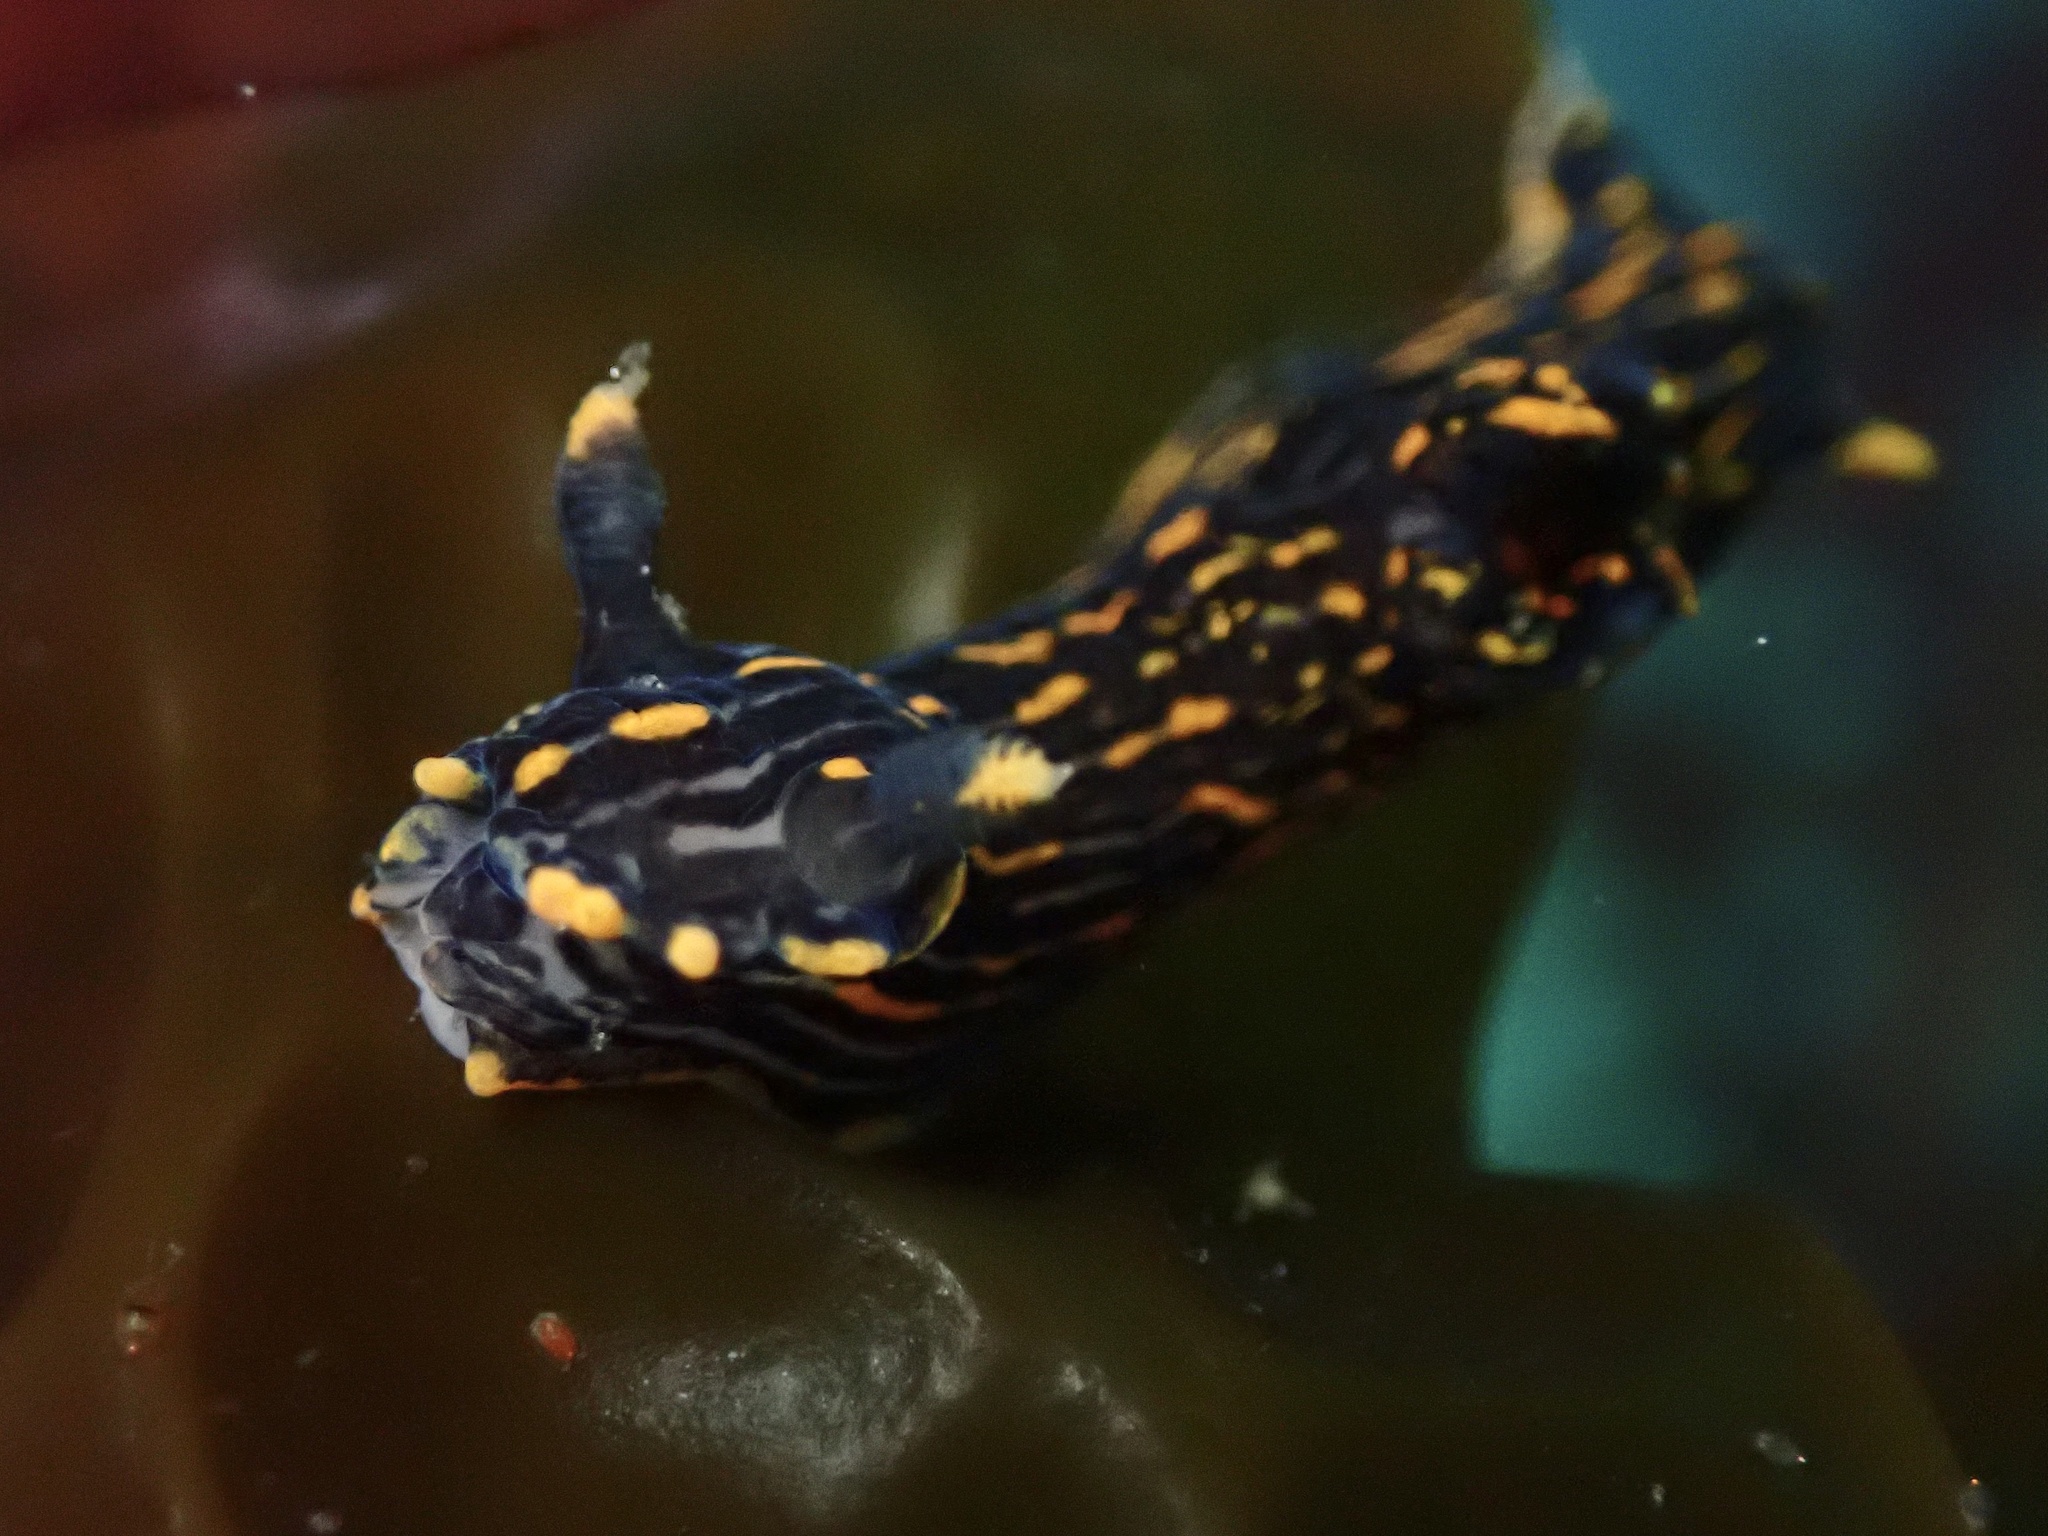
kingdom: Animalia
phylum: Mollusca
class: Gastropoda
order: Nudibranchia
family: Polyceridae
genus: Polycera
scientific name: Polycera atra
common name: Orange-spike polycera
